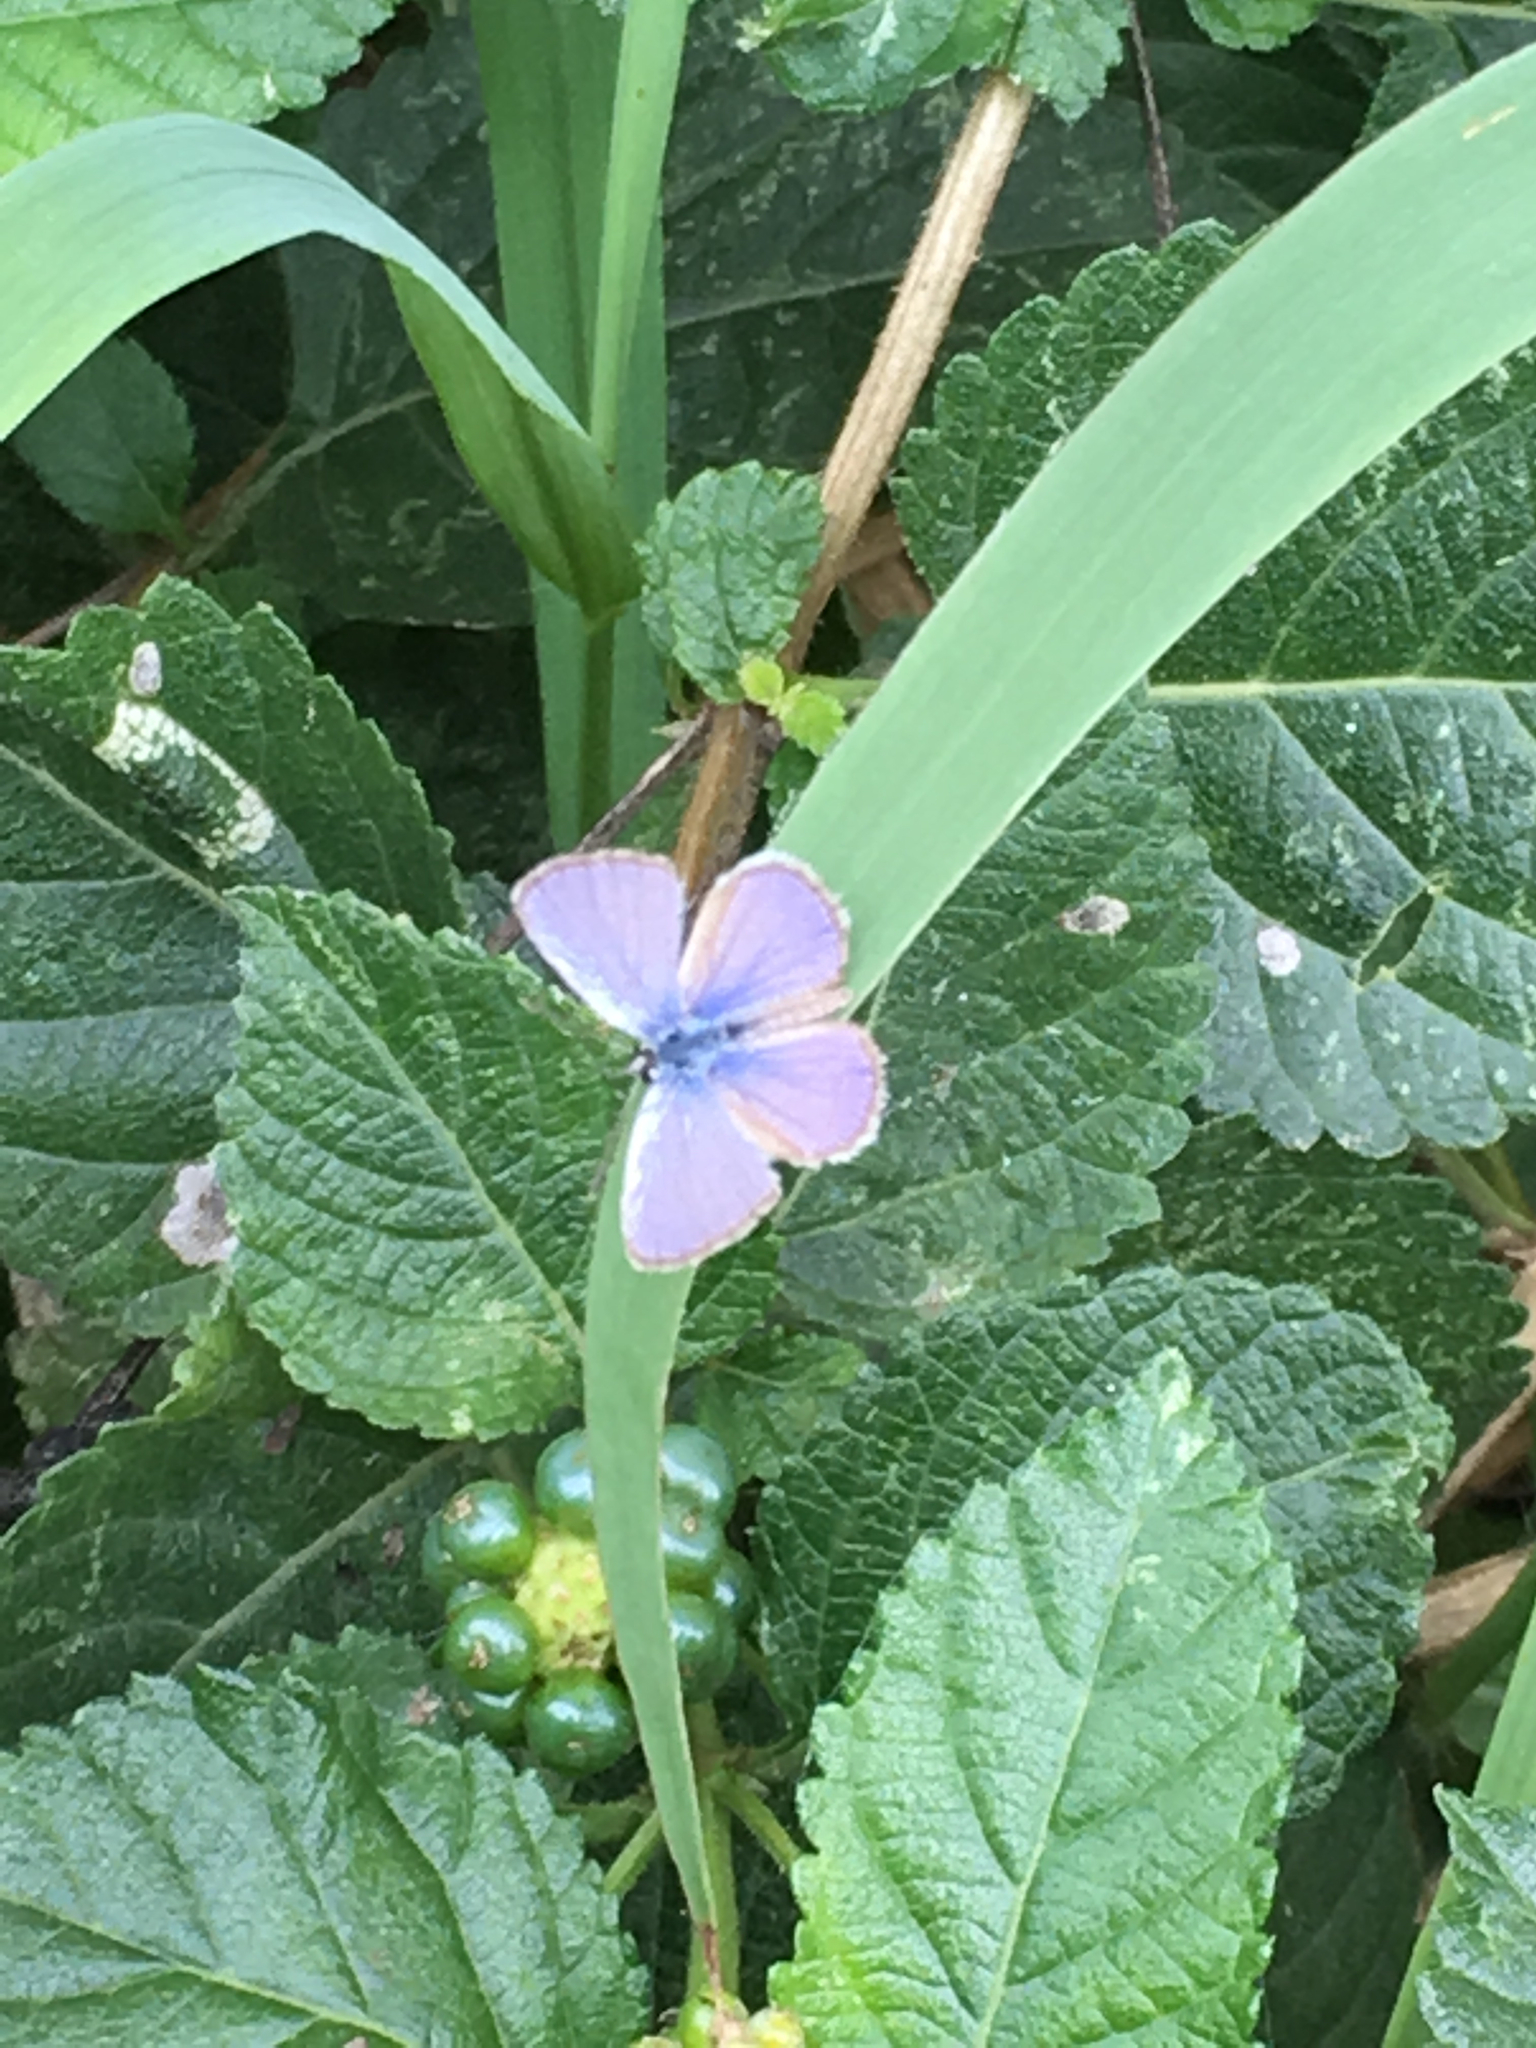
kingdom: Animalia
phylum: Arthropoda
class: Insecta
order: Lepidoptera
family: Lycaenidae
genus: Hemiargus
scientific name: Hemiargus ceraunus
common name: Ceraunus blue
